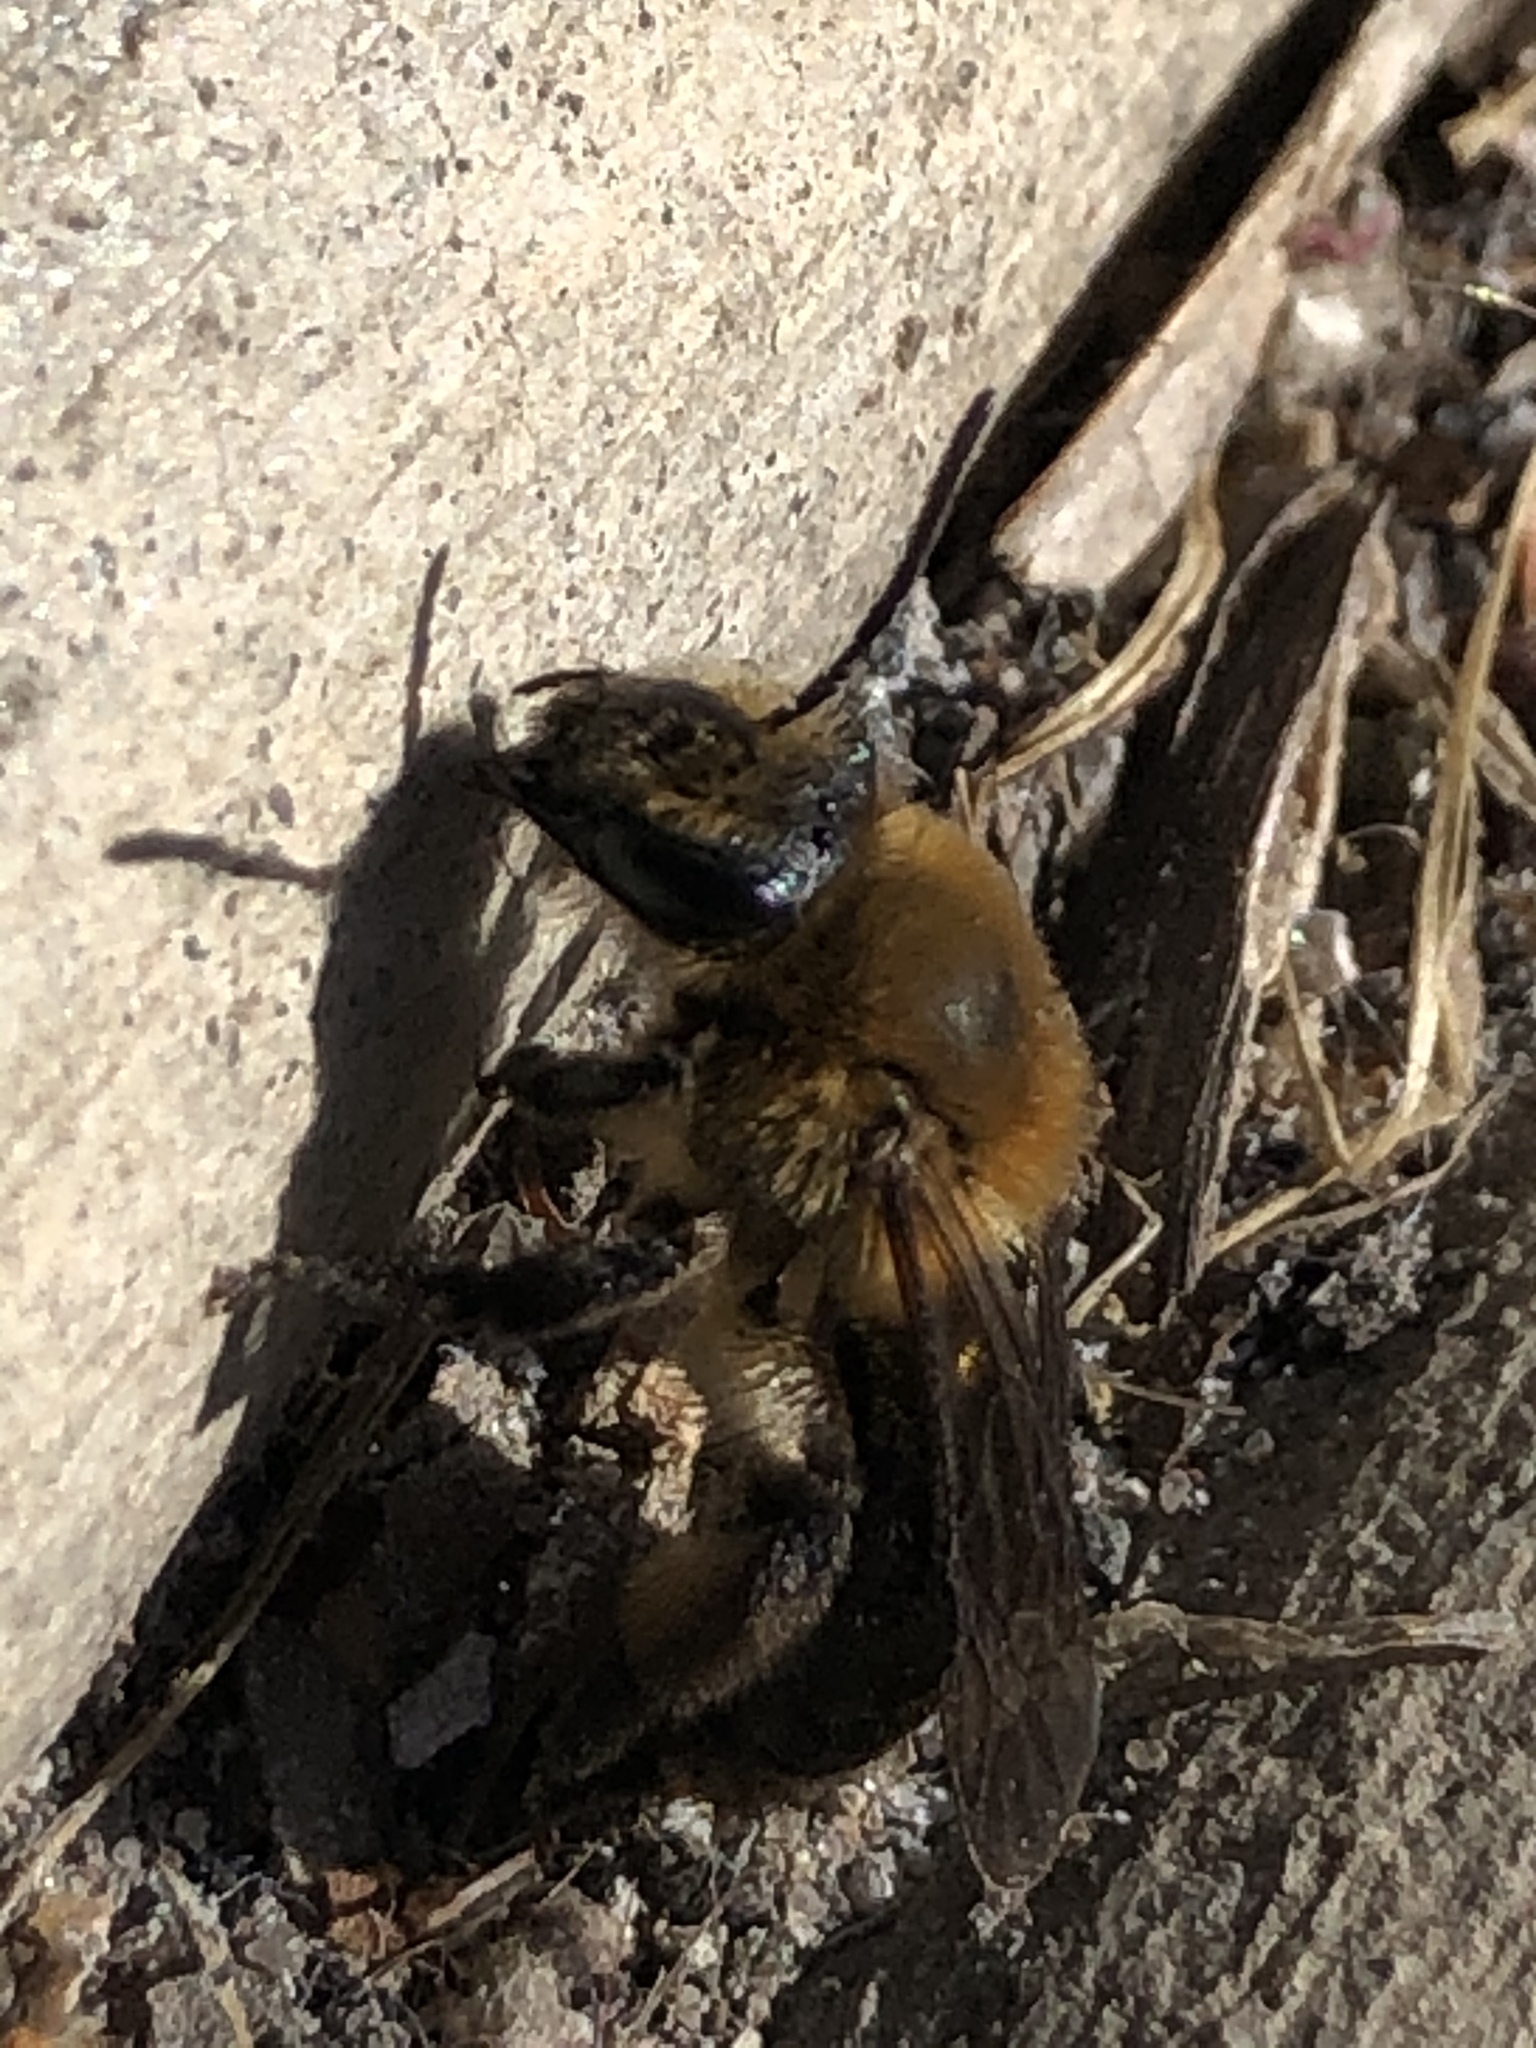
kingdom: Animalia
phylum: Arthropoda
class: Insecta
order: Hymenoptera
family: Andrenidae
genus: Andrena
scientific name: Andrena dunningi
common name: Dunning's miner
